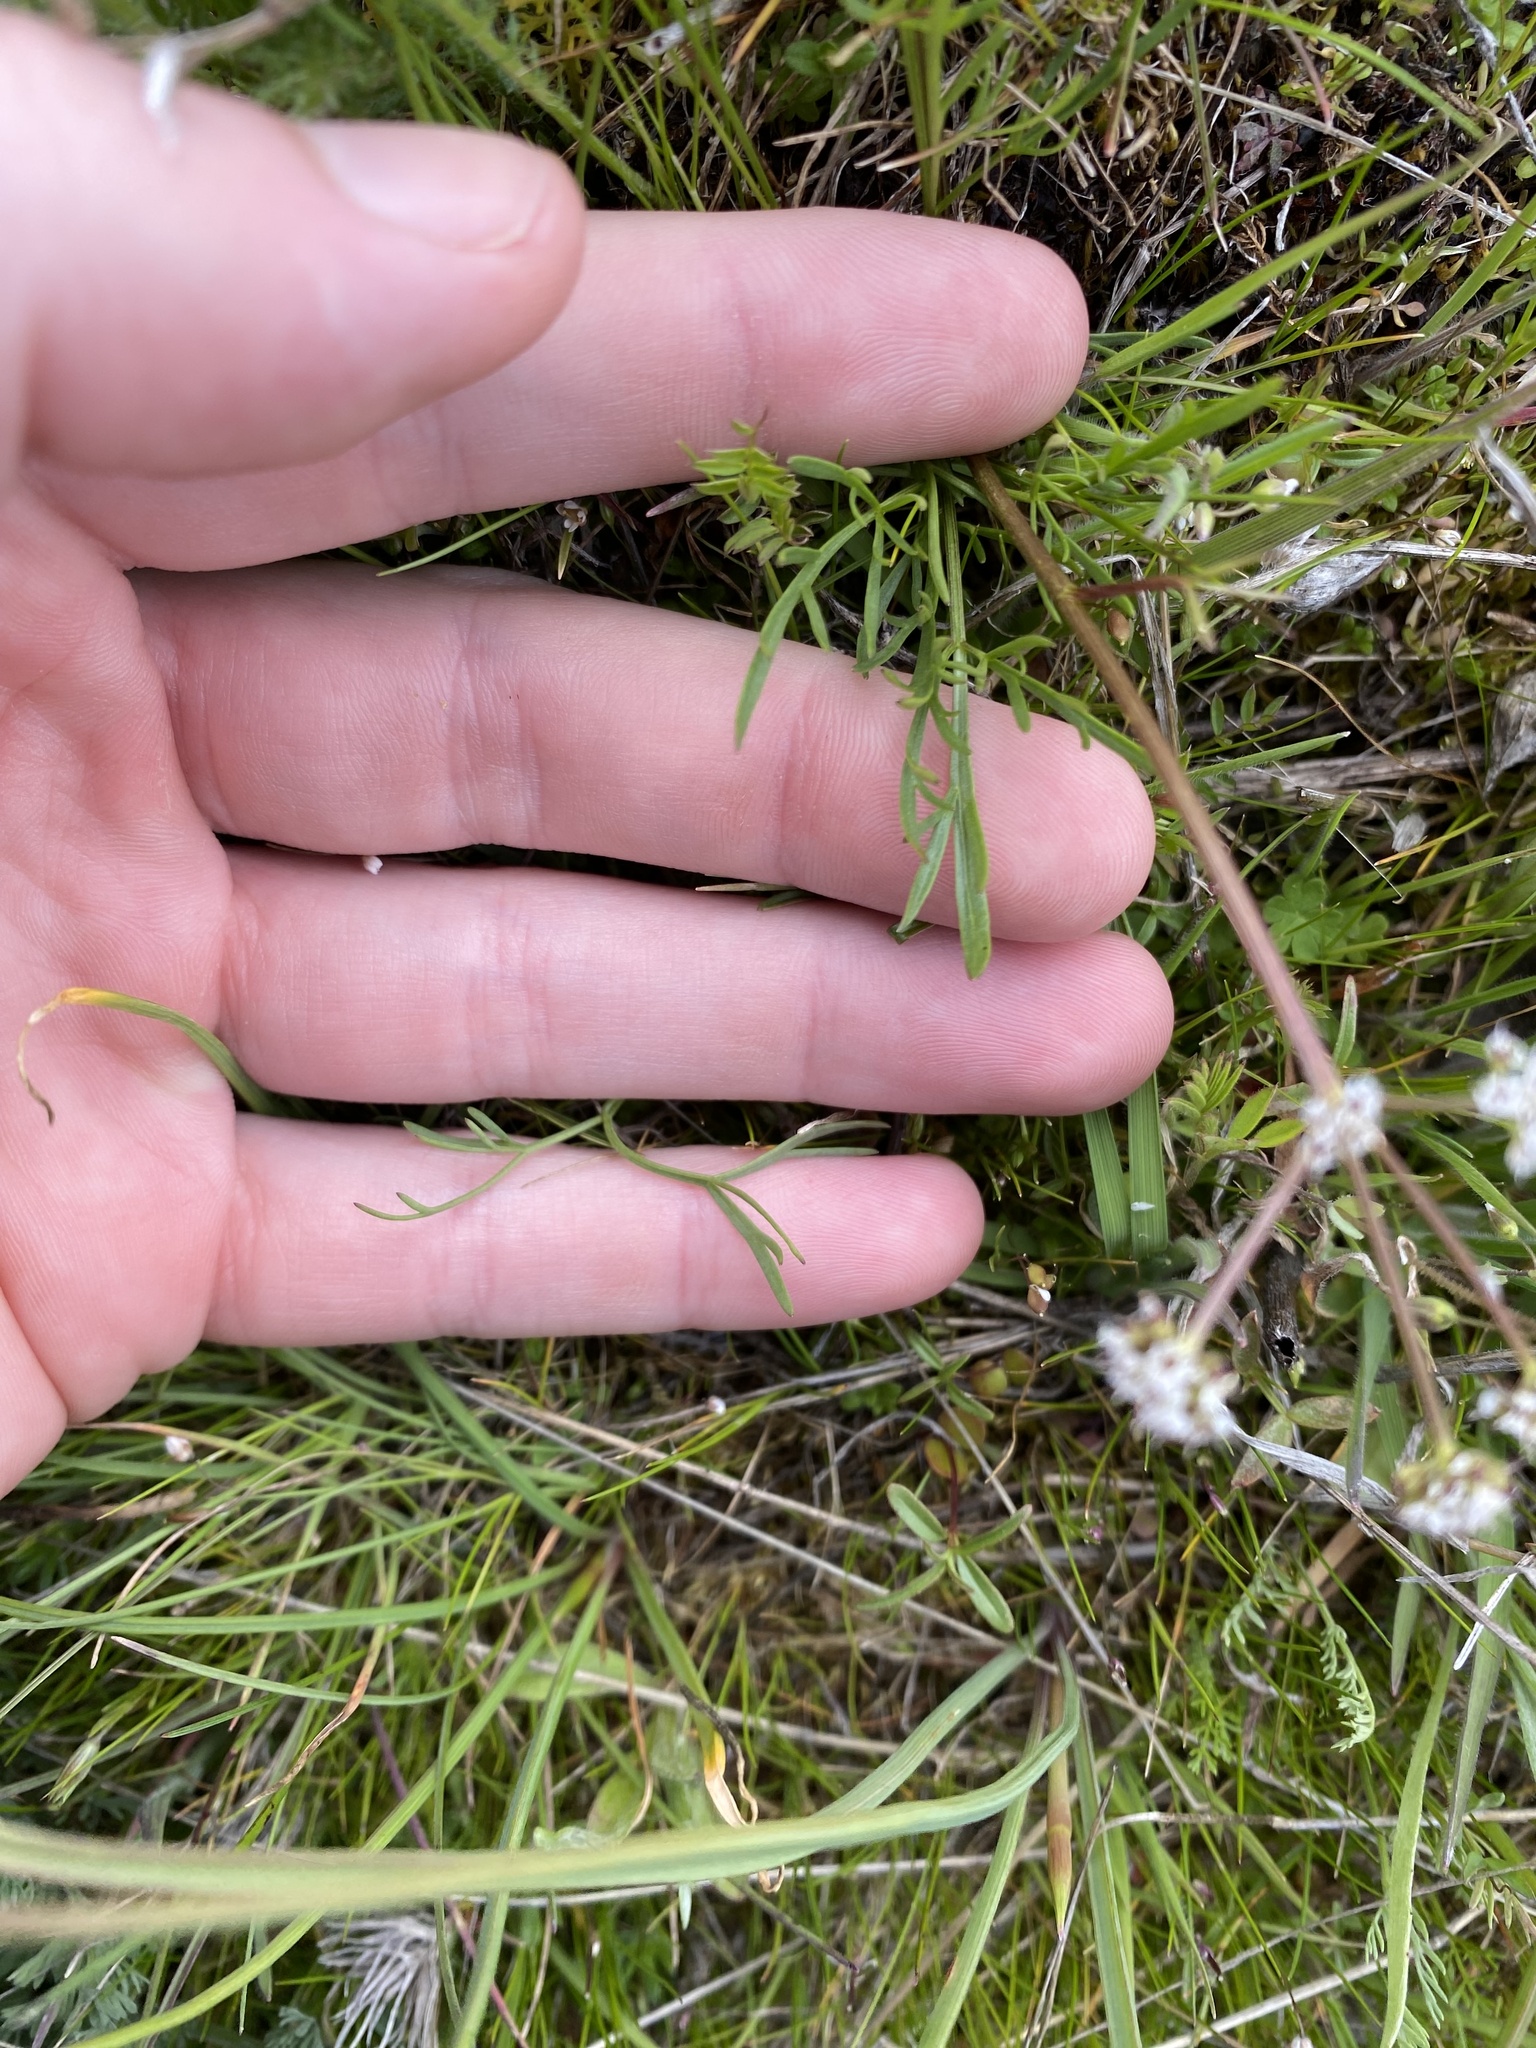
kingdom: Plantae
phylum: Tracheophyta
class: Magnoliopsida
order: Apiales
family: Apiaceae
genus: Lomatium
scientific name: Lomatium piperi
